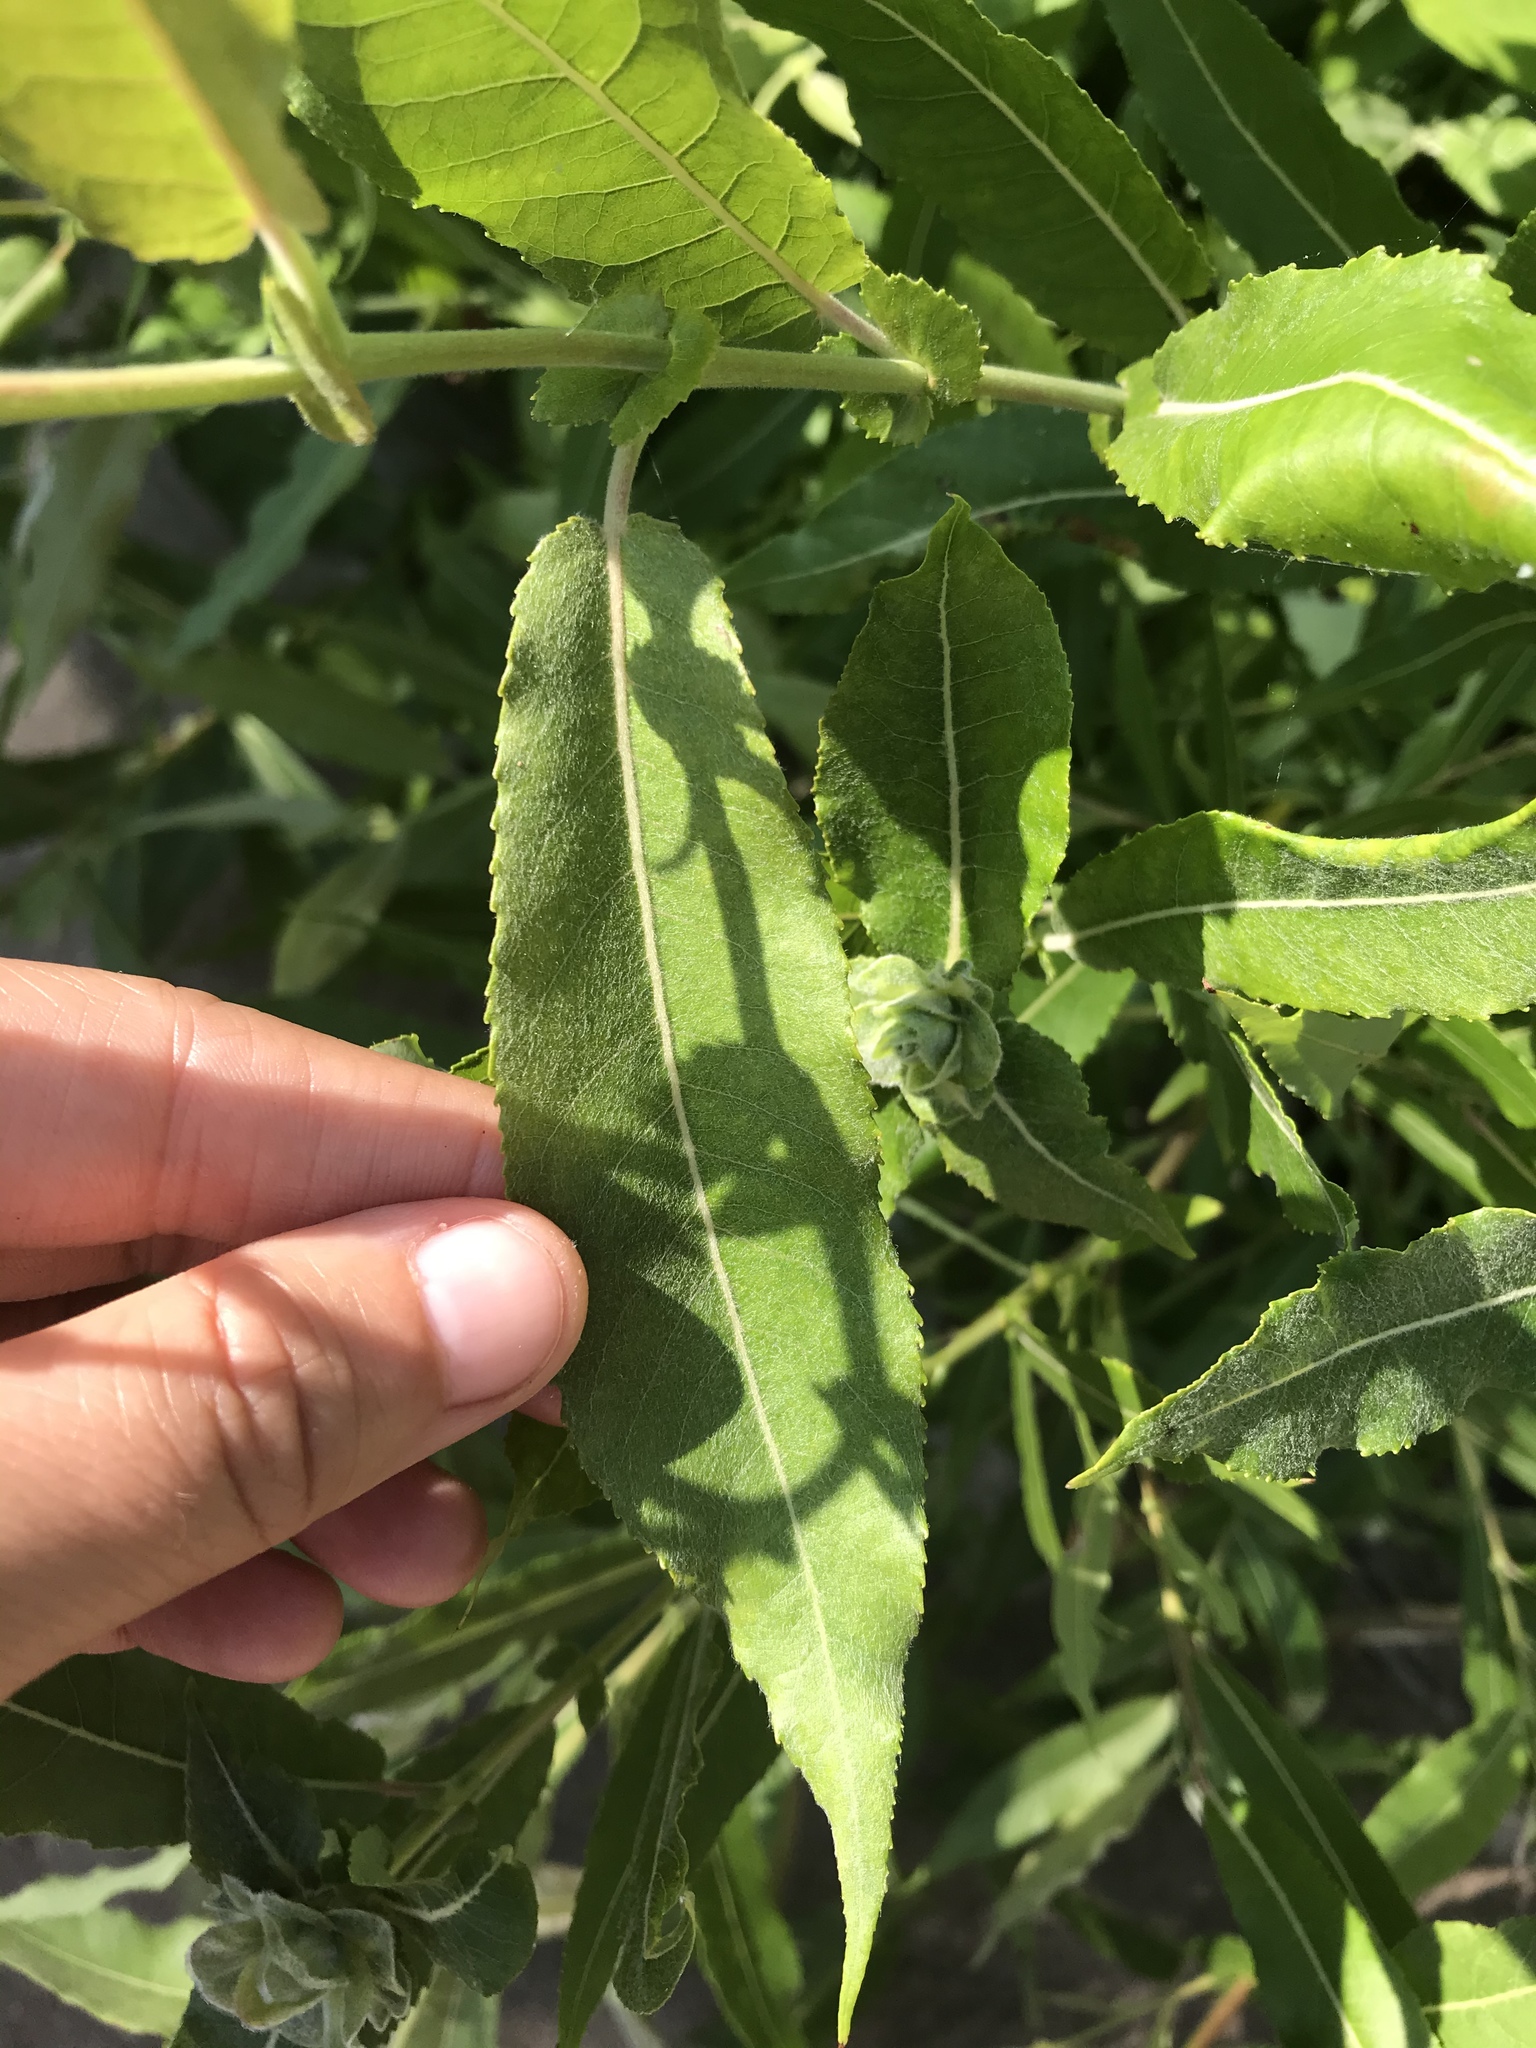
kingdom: Plantae
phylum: Tracheophyta
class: Magnoliopsida
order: Malpighiales
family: Salicaceae
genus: Salix
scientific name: Salix eriocephala
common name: Heart-leaved willow
